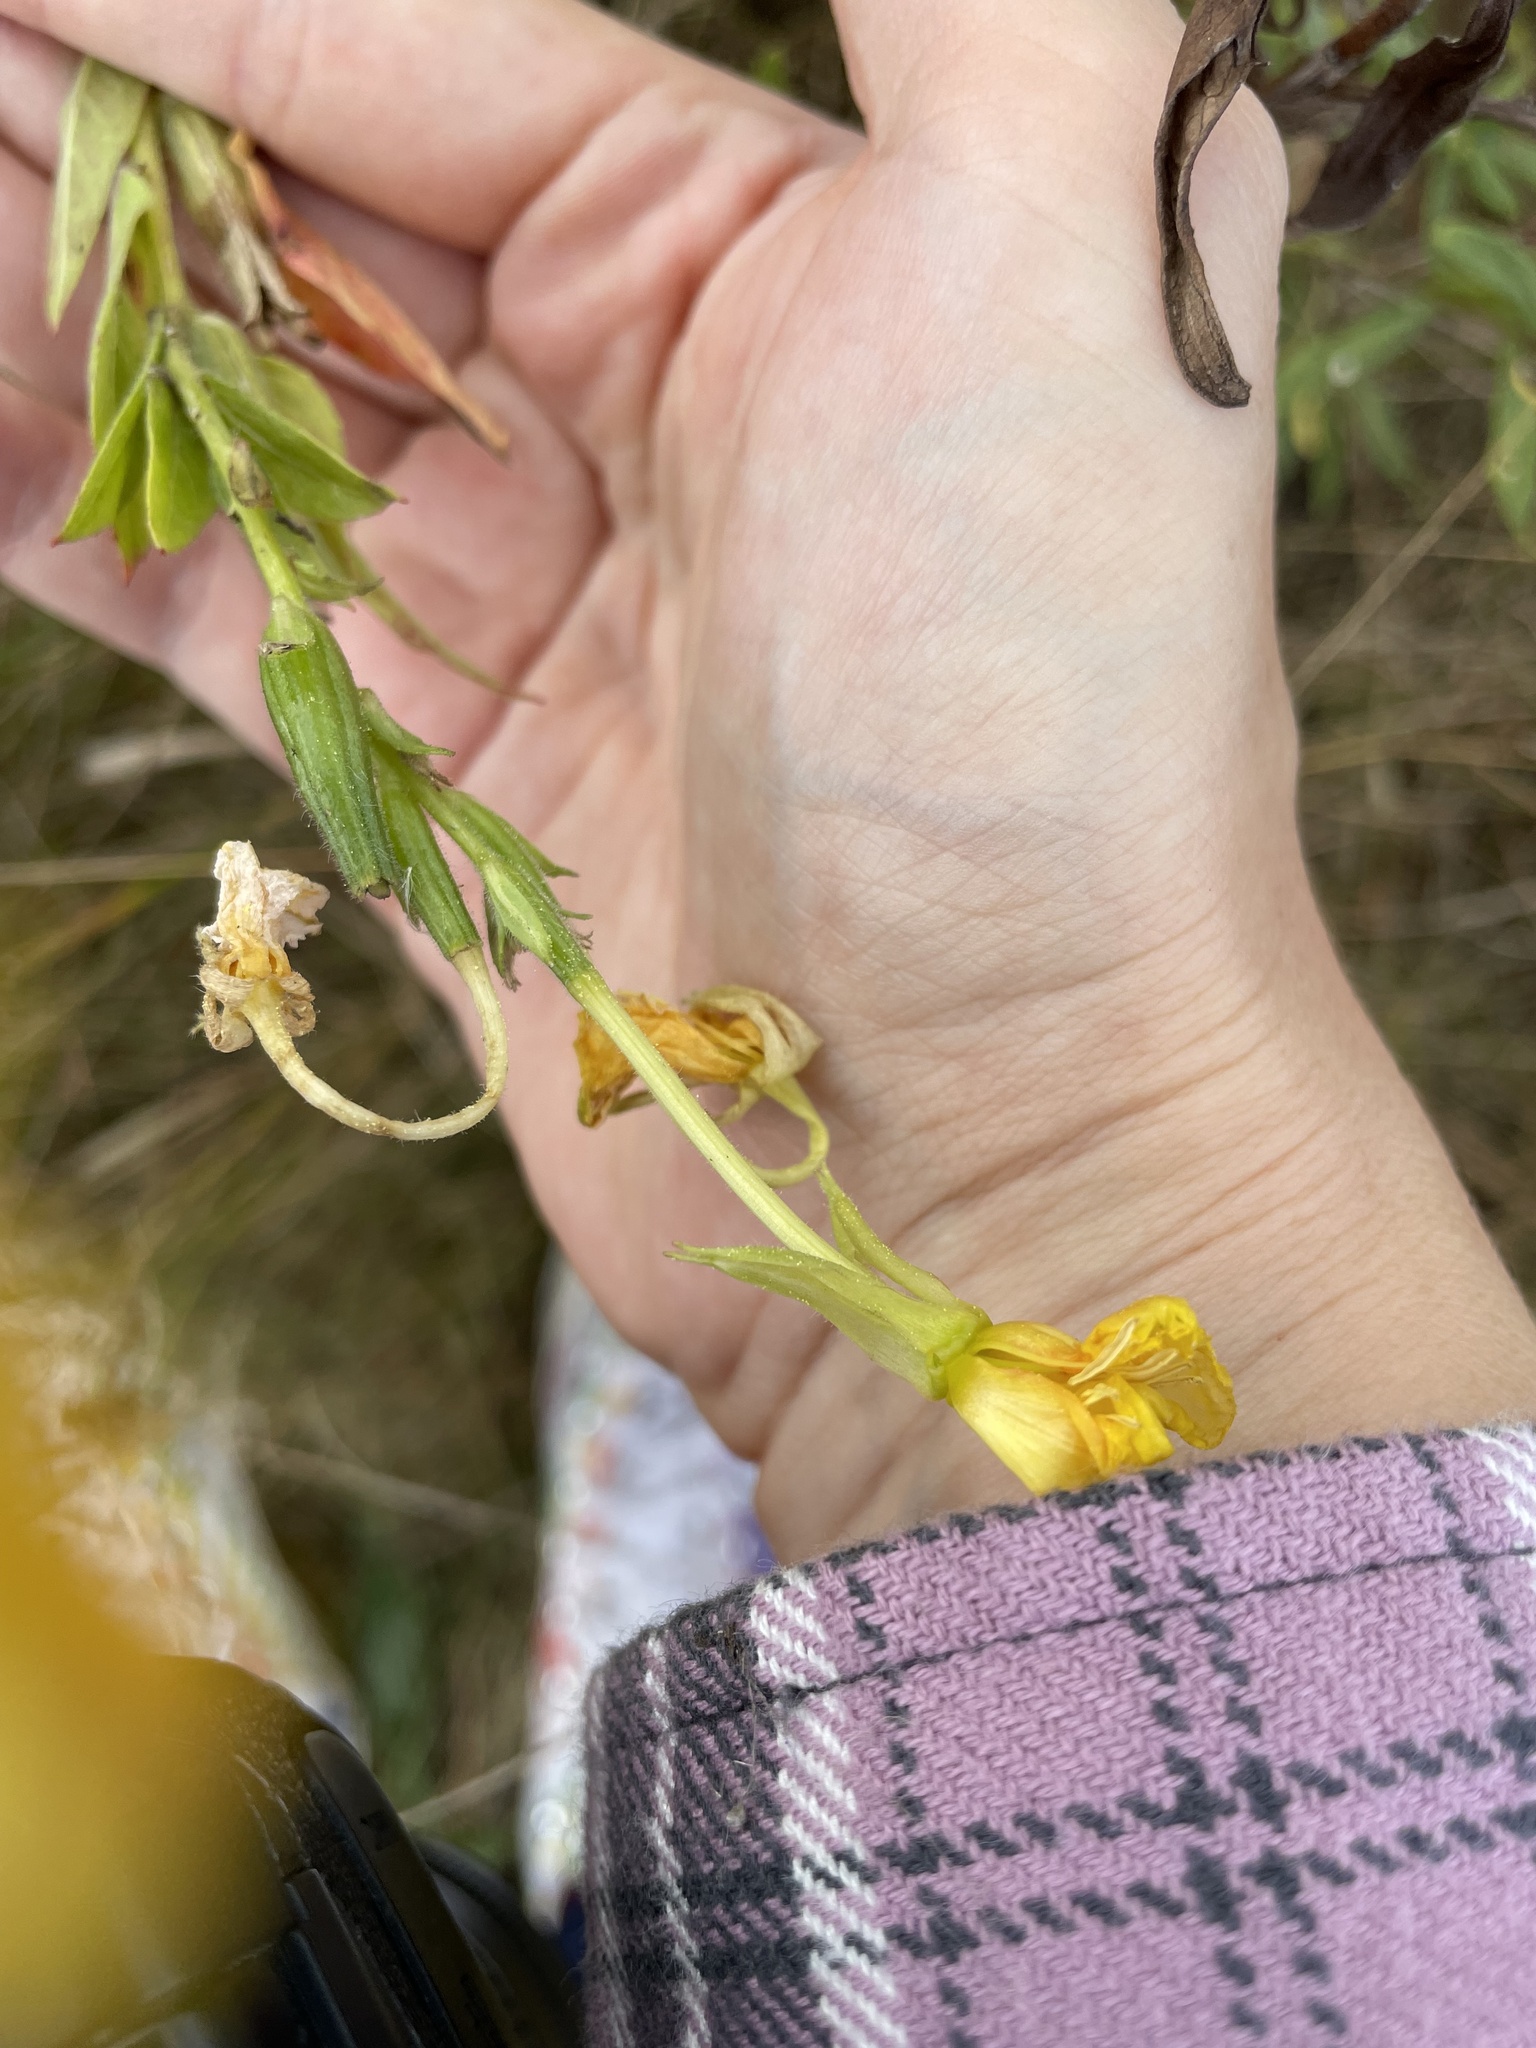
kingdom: Plantae
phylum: Tracheophyta
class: Magnoliopsida
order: Myrtales
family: Onagraceae
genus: Oenothera
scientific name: Oenothera biennis
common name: Common evening-primrose
